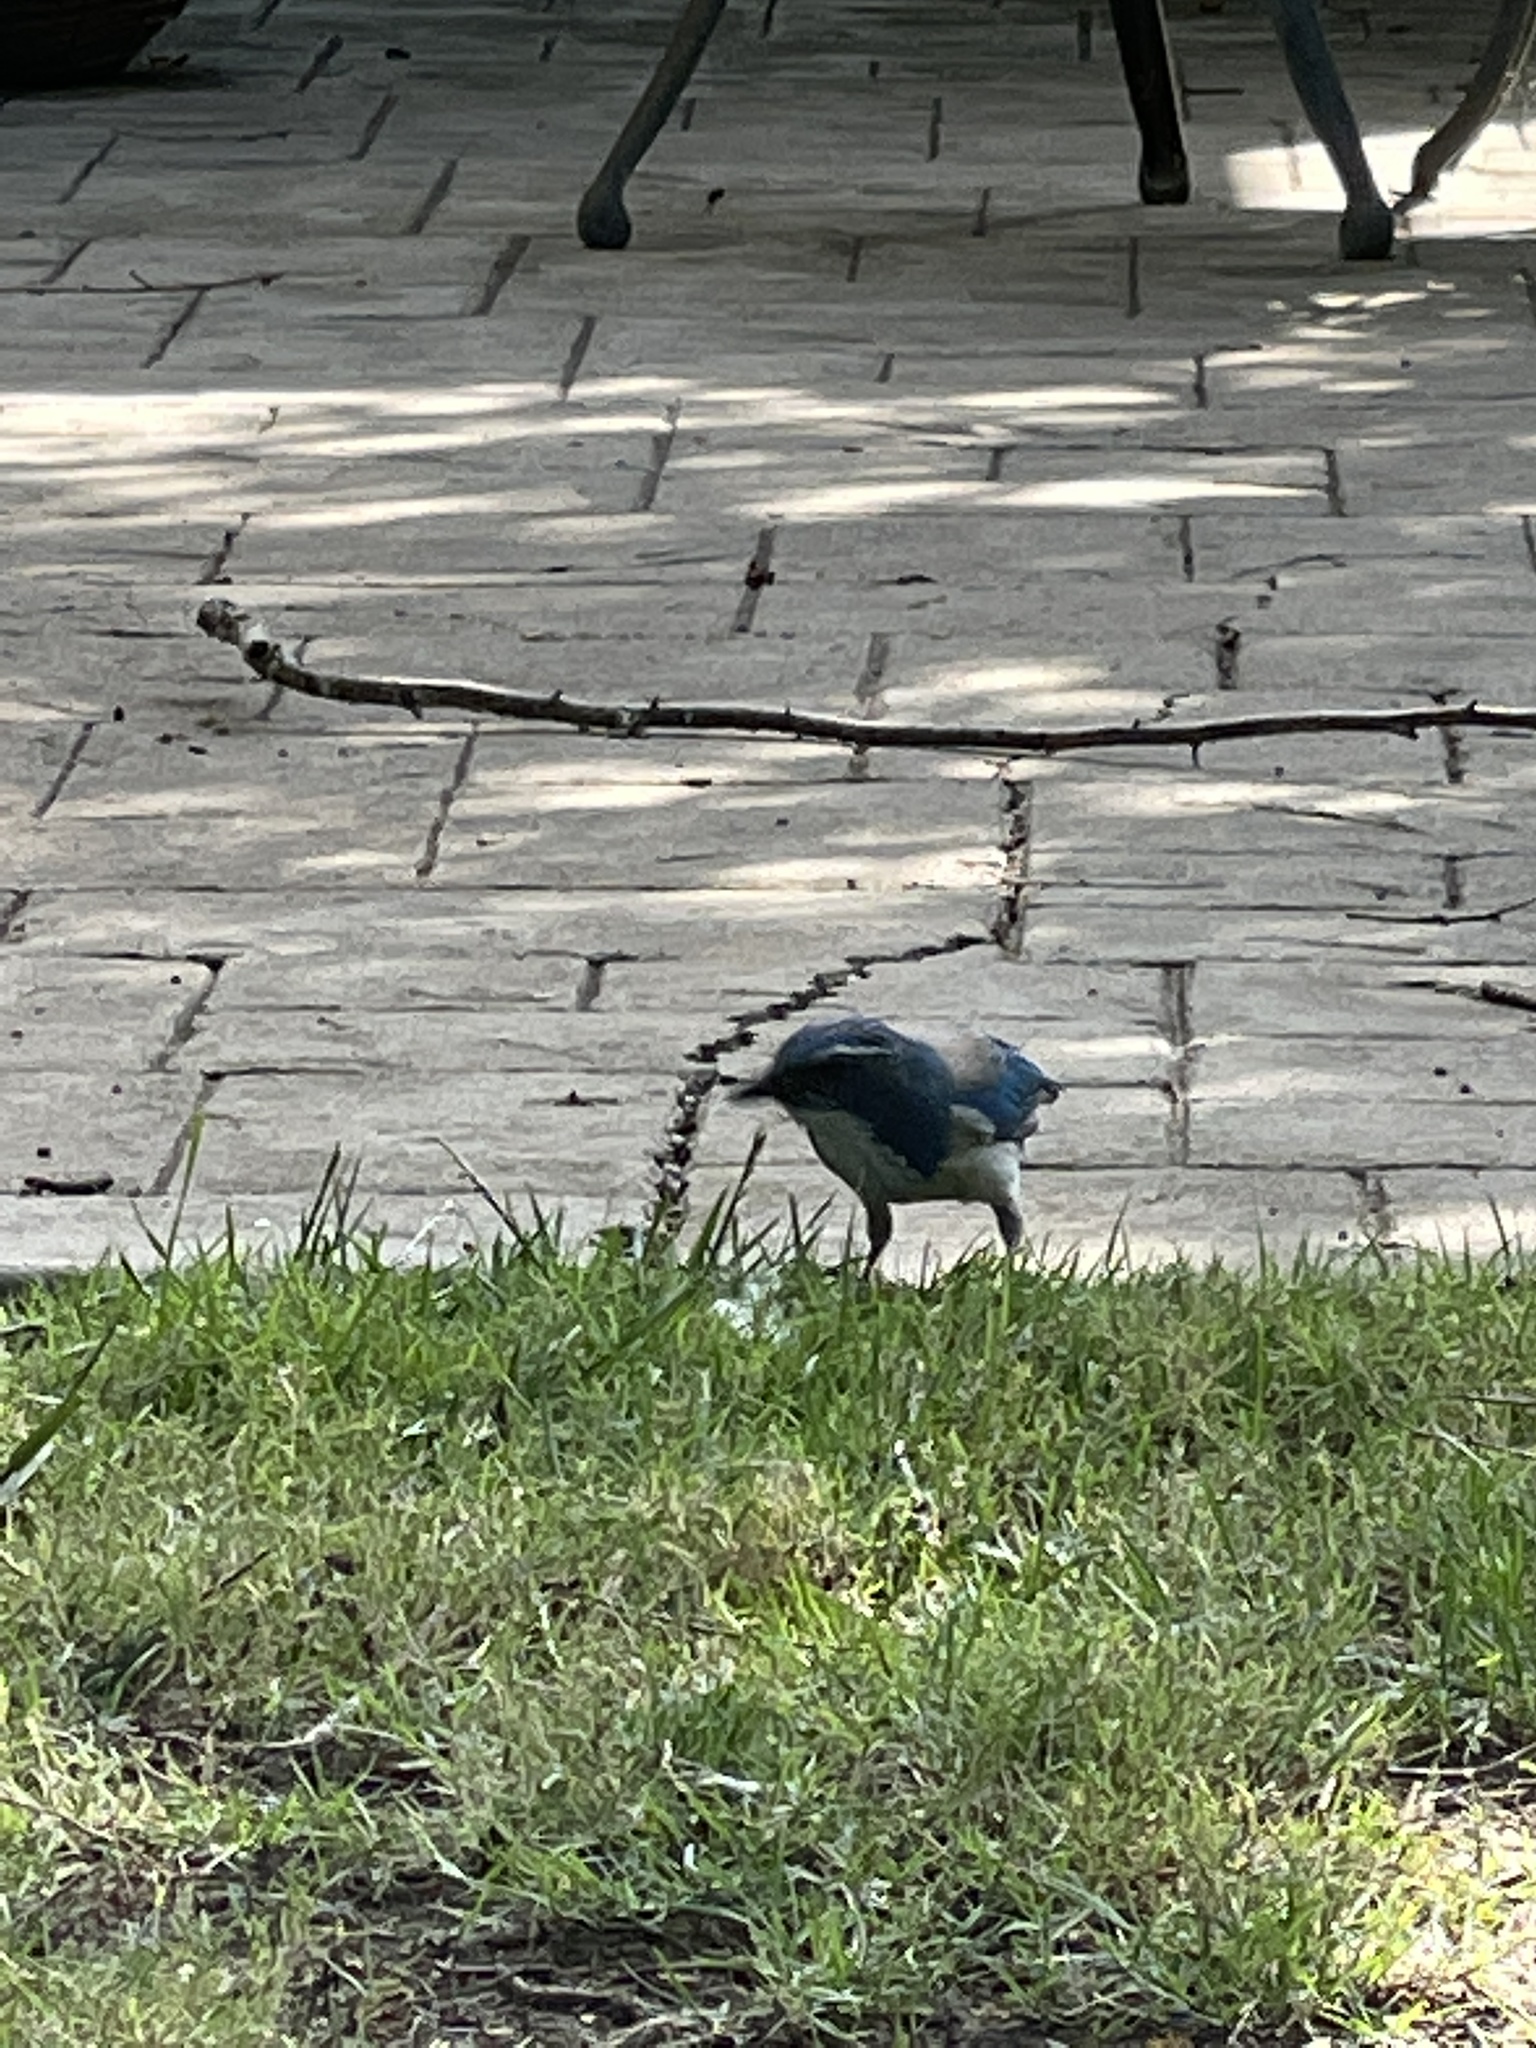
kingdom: Animalia
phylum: Chordata
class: Aves
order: Passeriformes
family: Corvidae
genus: Aphelocoma
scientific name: Aphelocoma californica
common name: California scrub-jay
